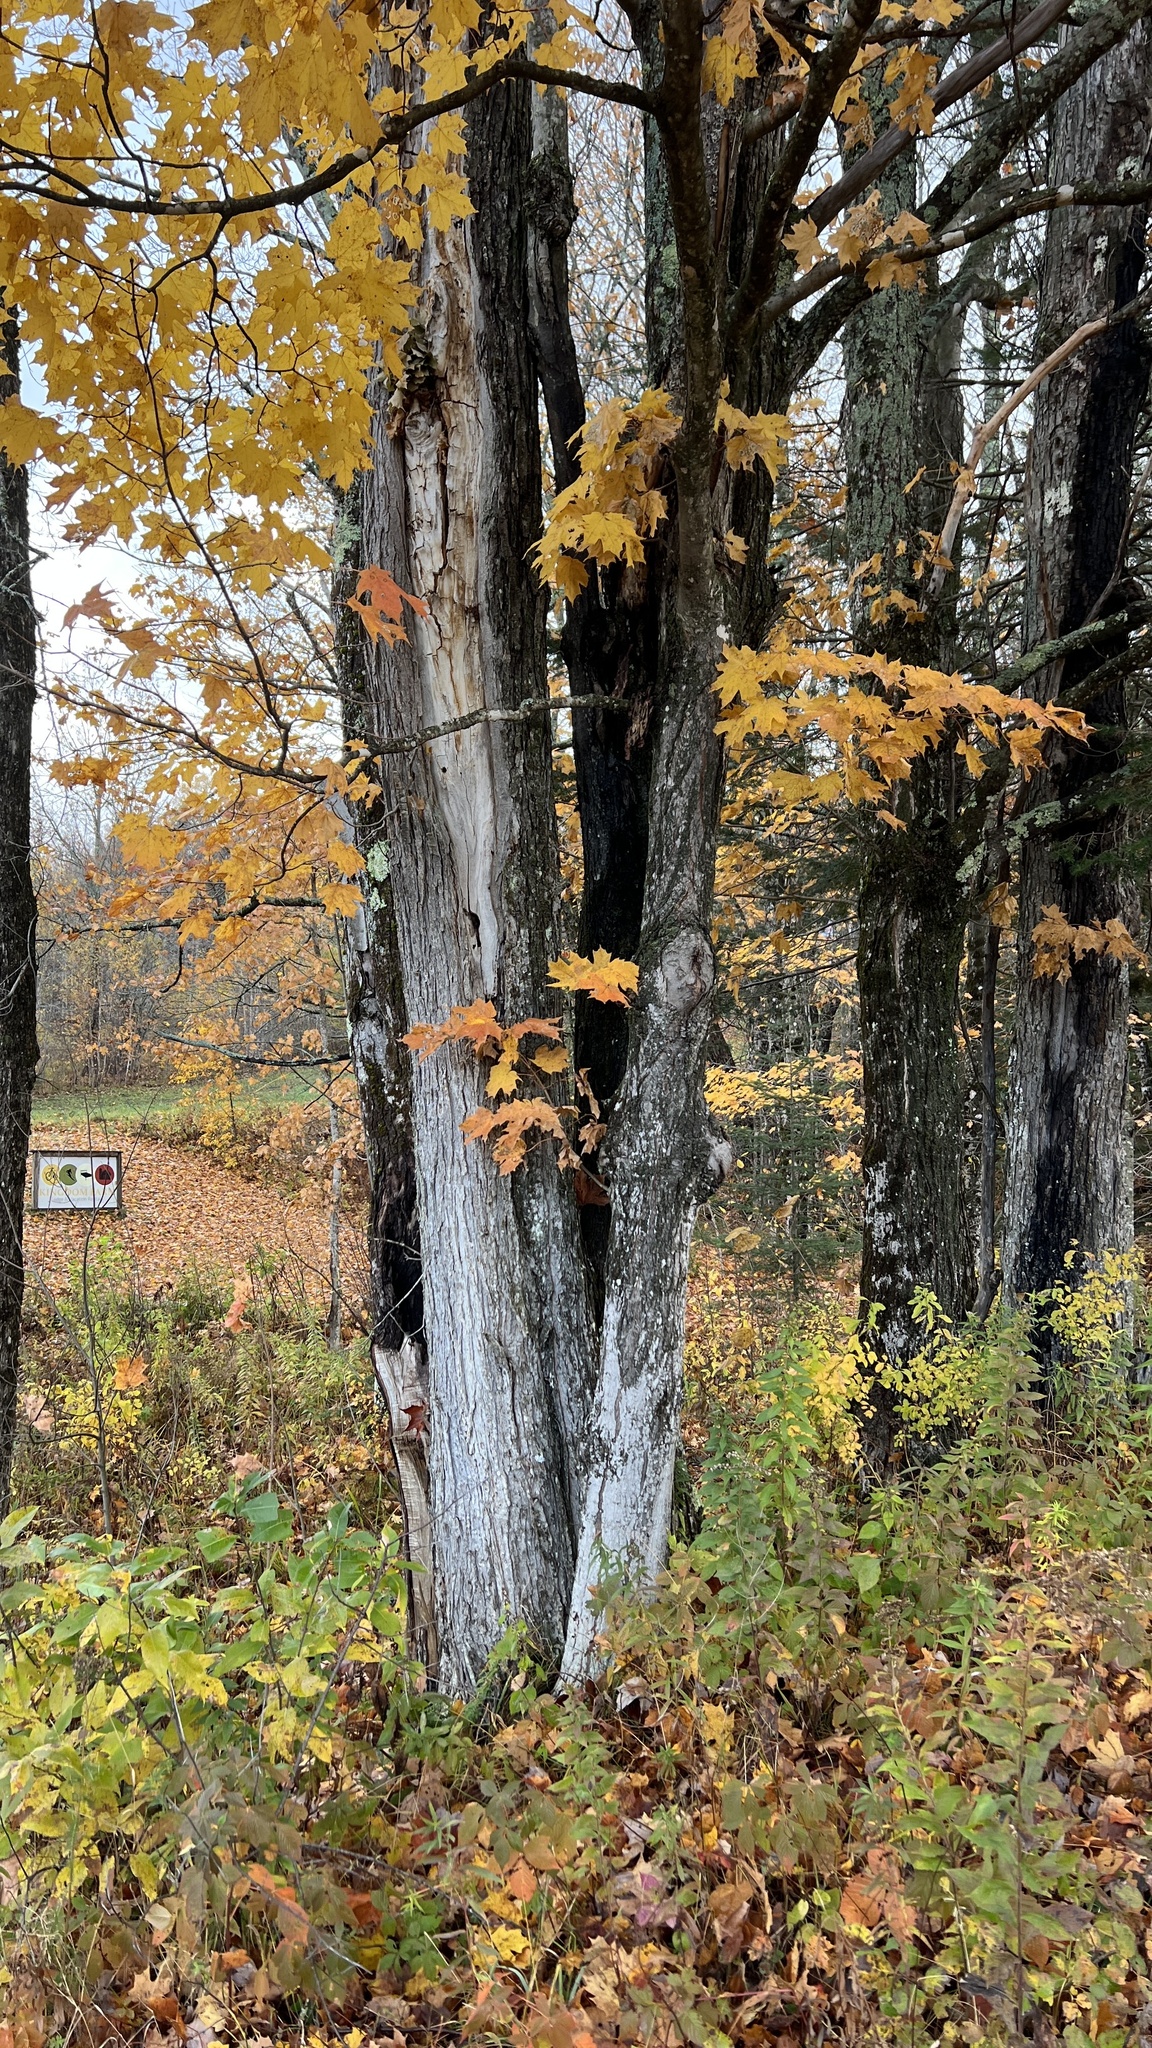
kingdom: Plantae
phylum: Tracheophyta
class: Magnoliopsida
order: Sapindales
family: Sapindaceae
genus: Acer
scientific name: Acer saccharum
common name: Sugar maple
